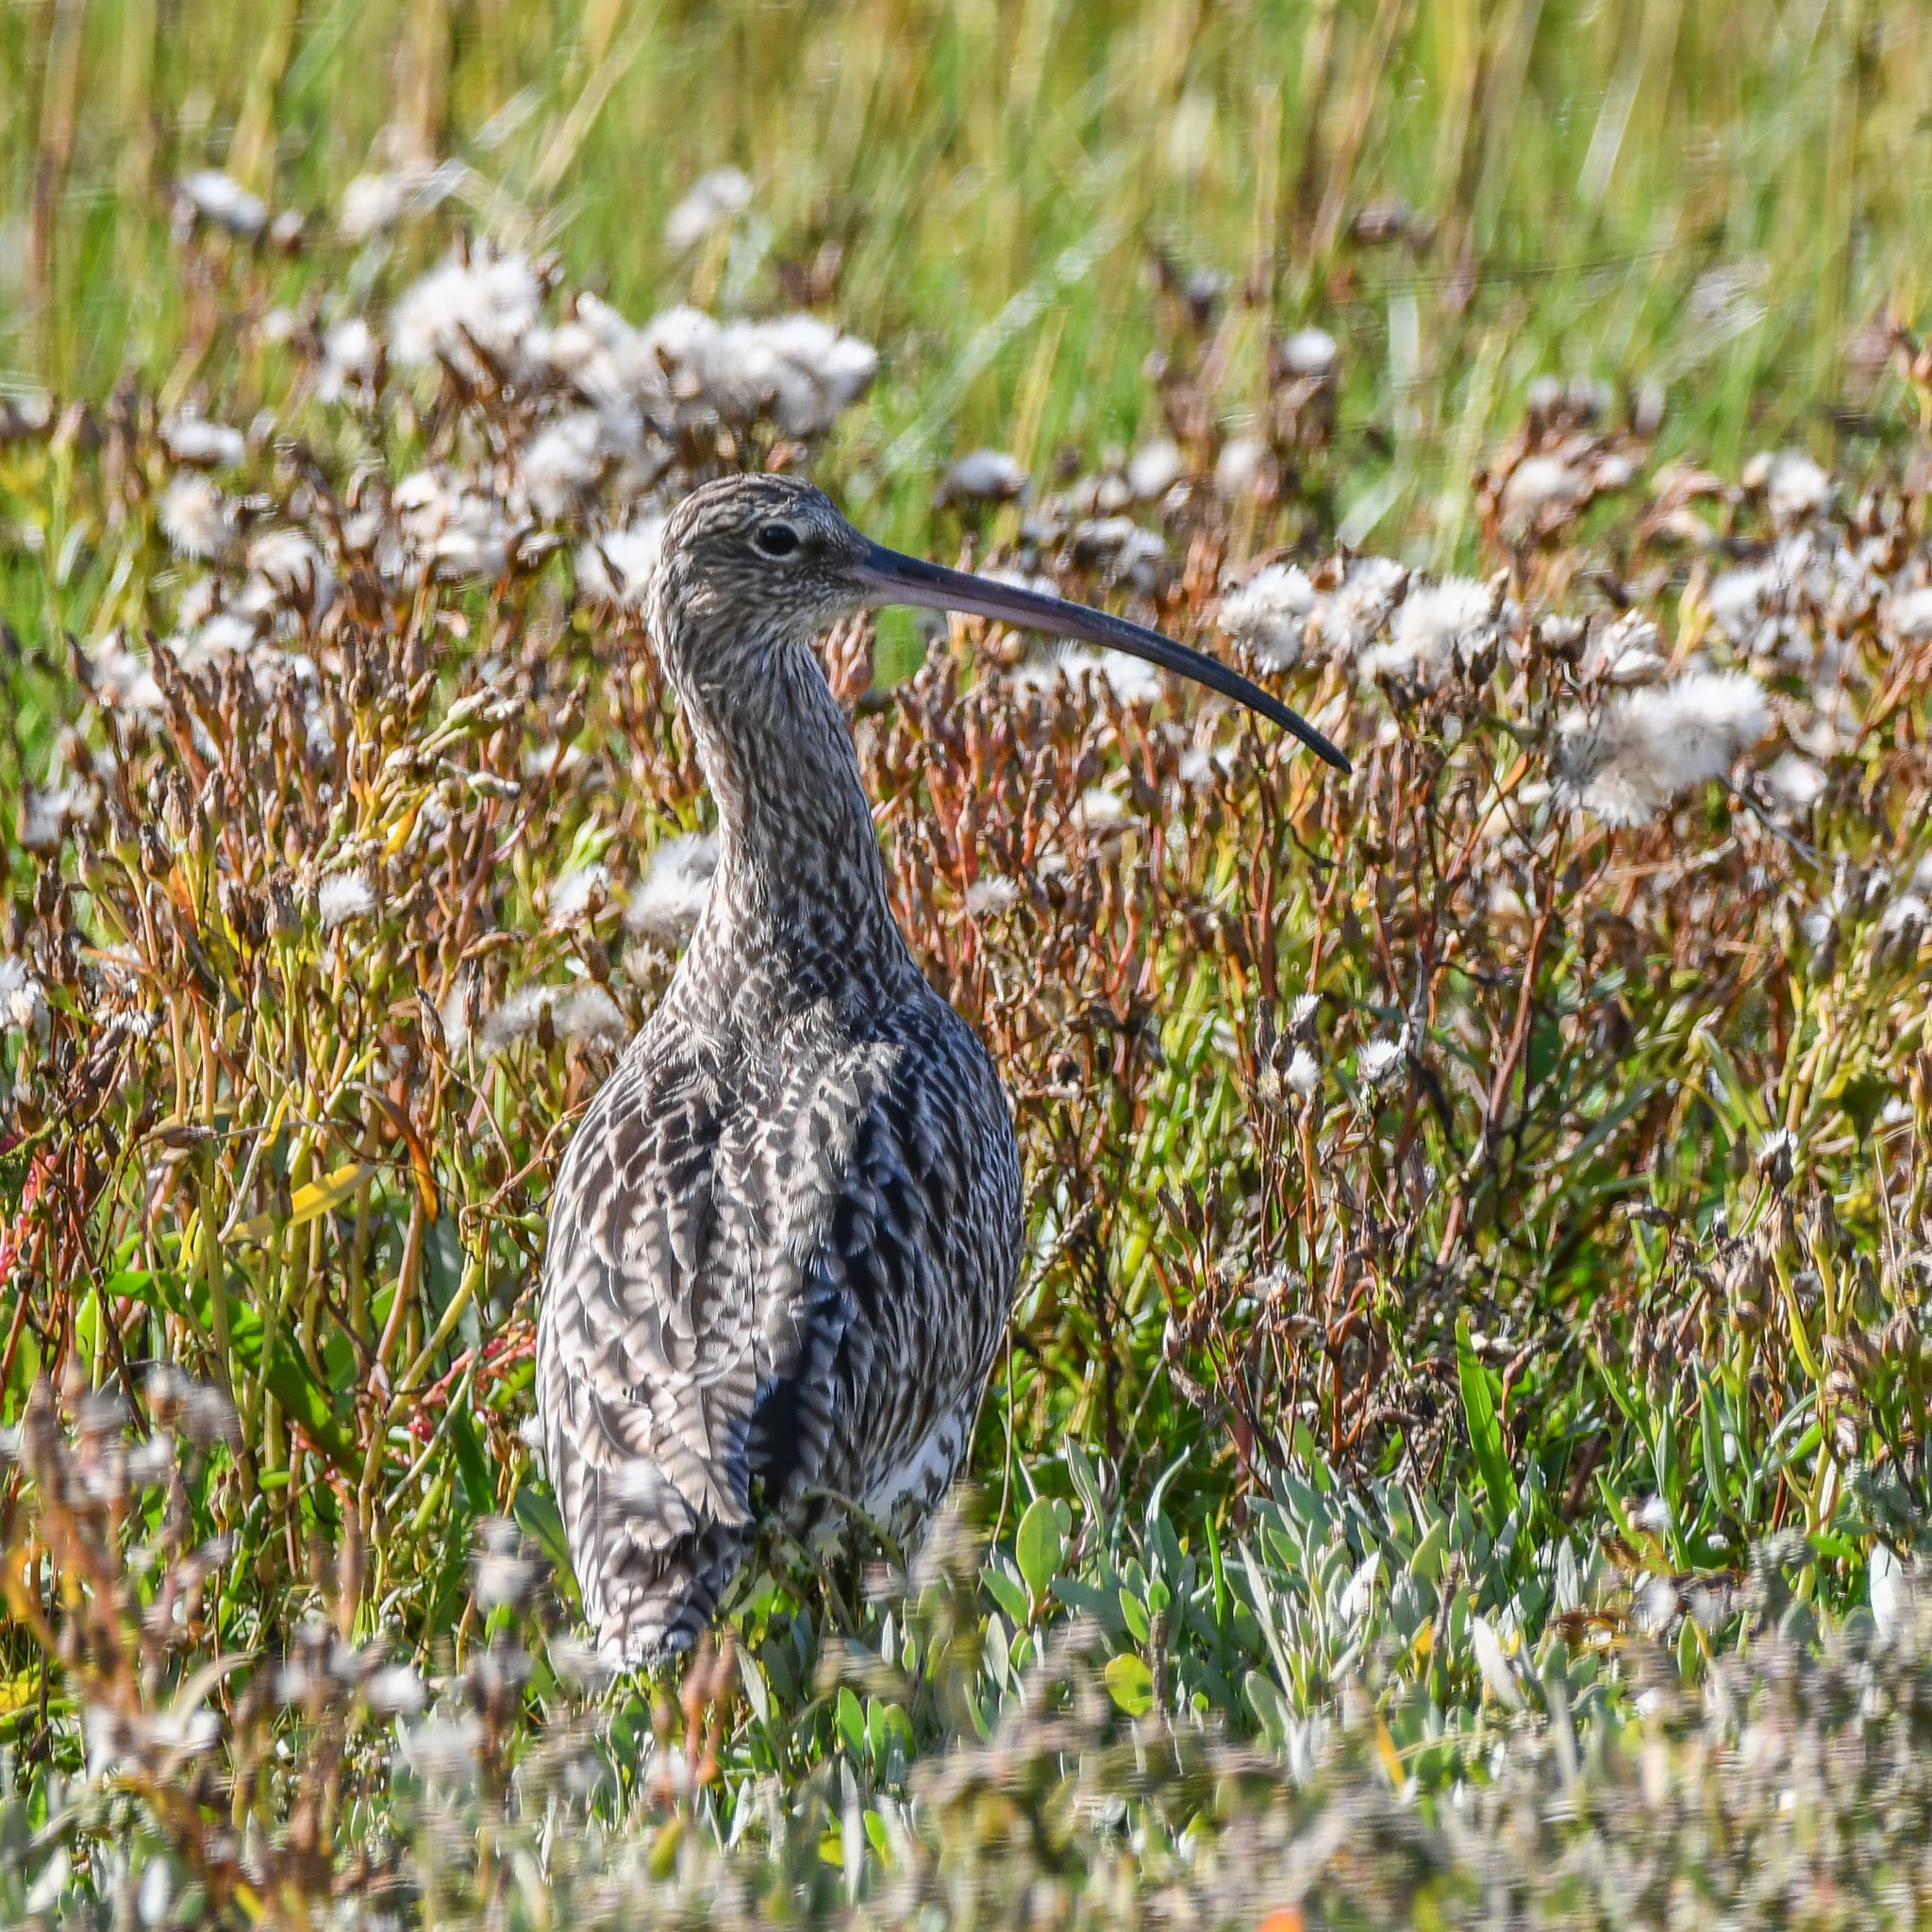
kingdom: Animalia
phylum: Chordata
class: Aves
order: Charadriiformes
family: Scolopacidae
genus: Numenius
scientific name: Numenius arquata
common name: Eurasian curlew
